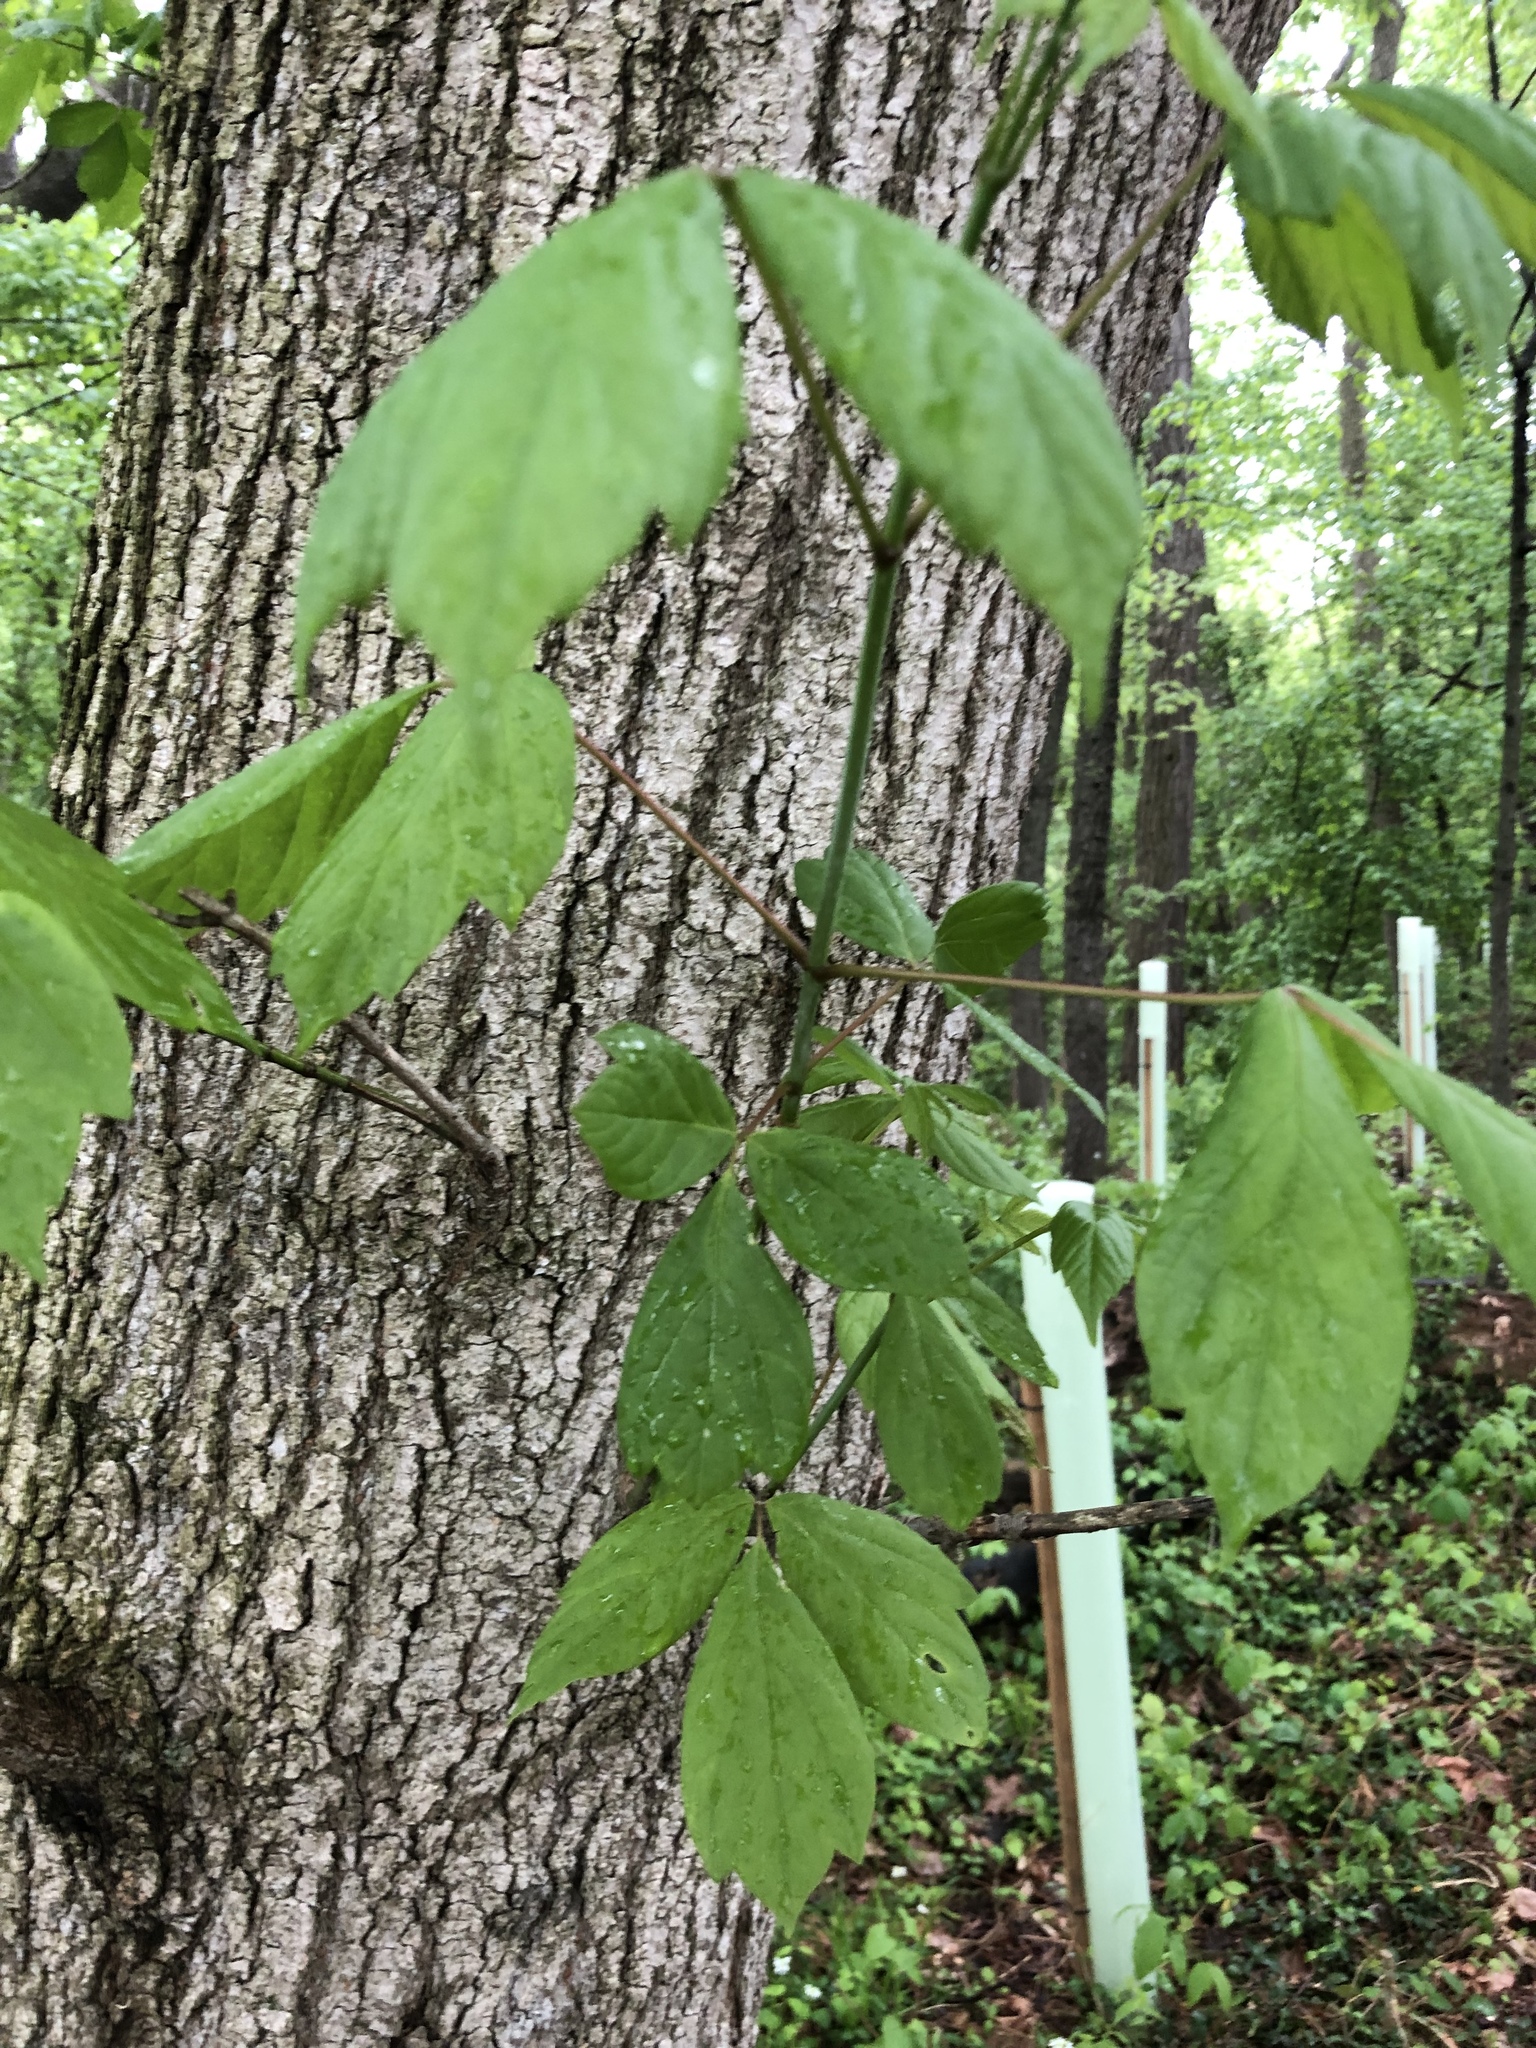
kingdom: Plantae
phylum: Tracheophyta
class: Magnoliopsida
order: Sapindales
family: Sapindaceae
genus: Acer
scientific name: Acer negundo
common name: Ashleaf maple
